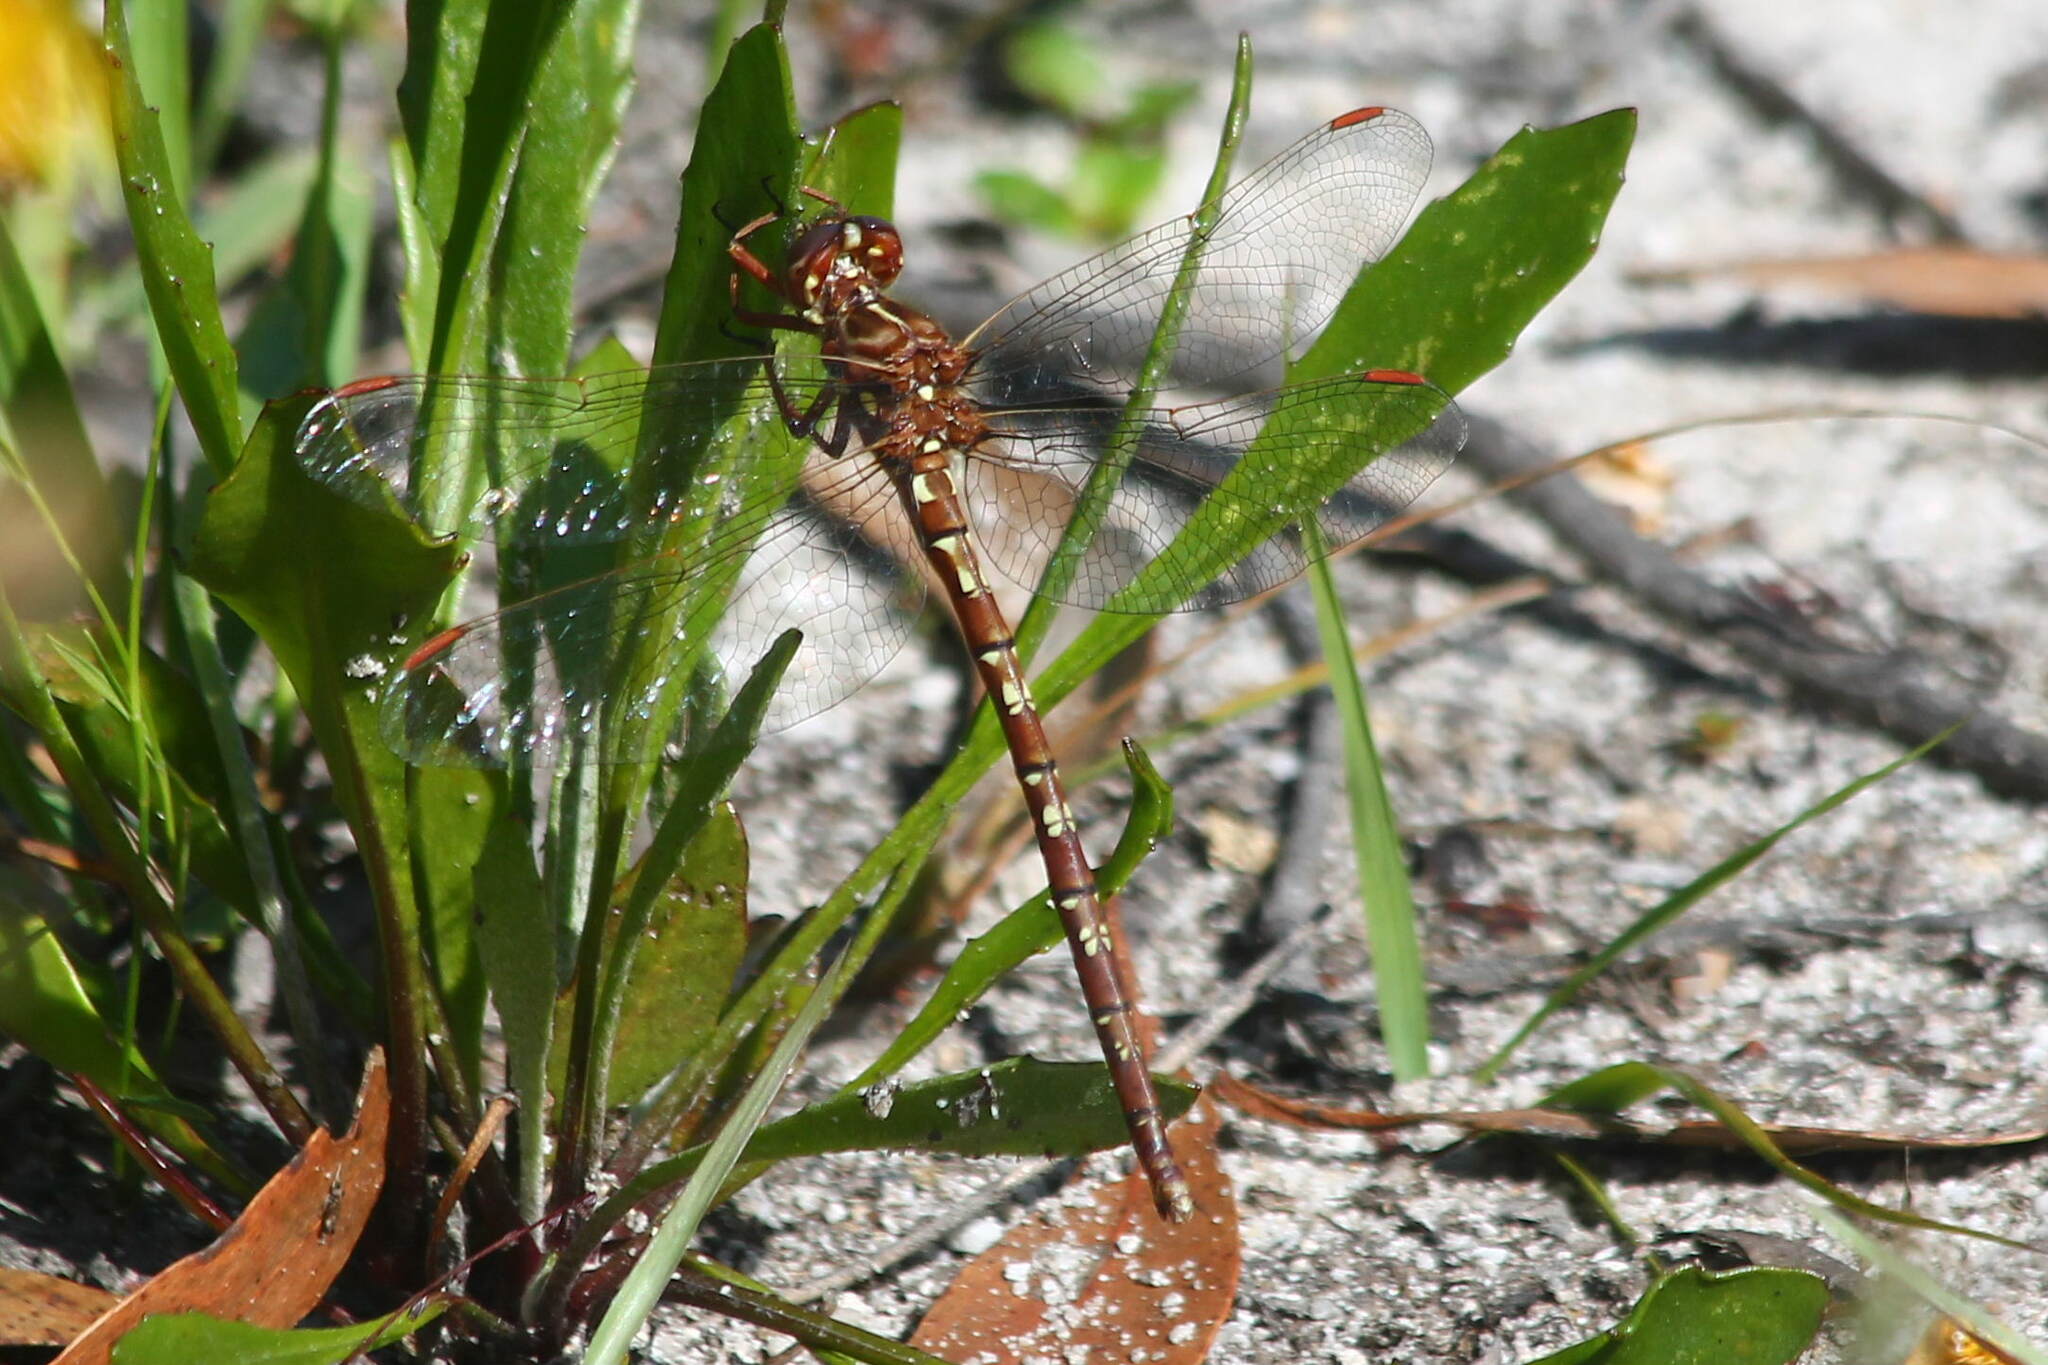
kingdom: Animalia
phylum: Arthropoda
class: Insecta
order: Odonata
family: Synthemistidae
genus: Archaeosynthemis
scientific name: Archaeosynthemis orientalis
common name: Eastern brown tigertail
